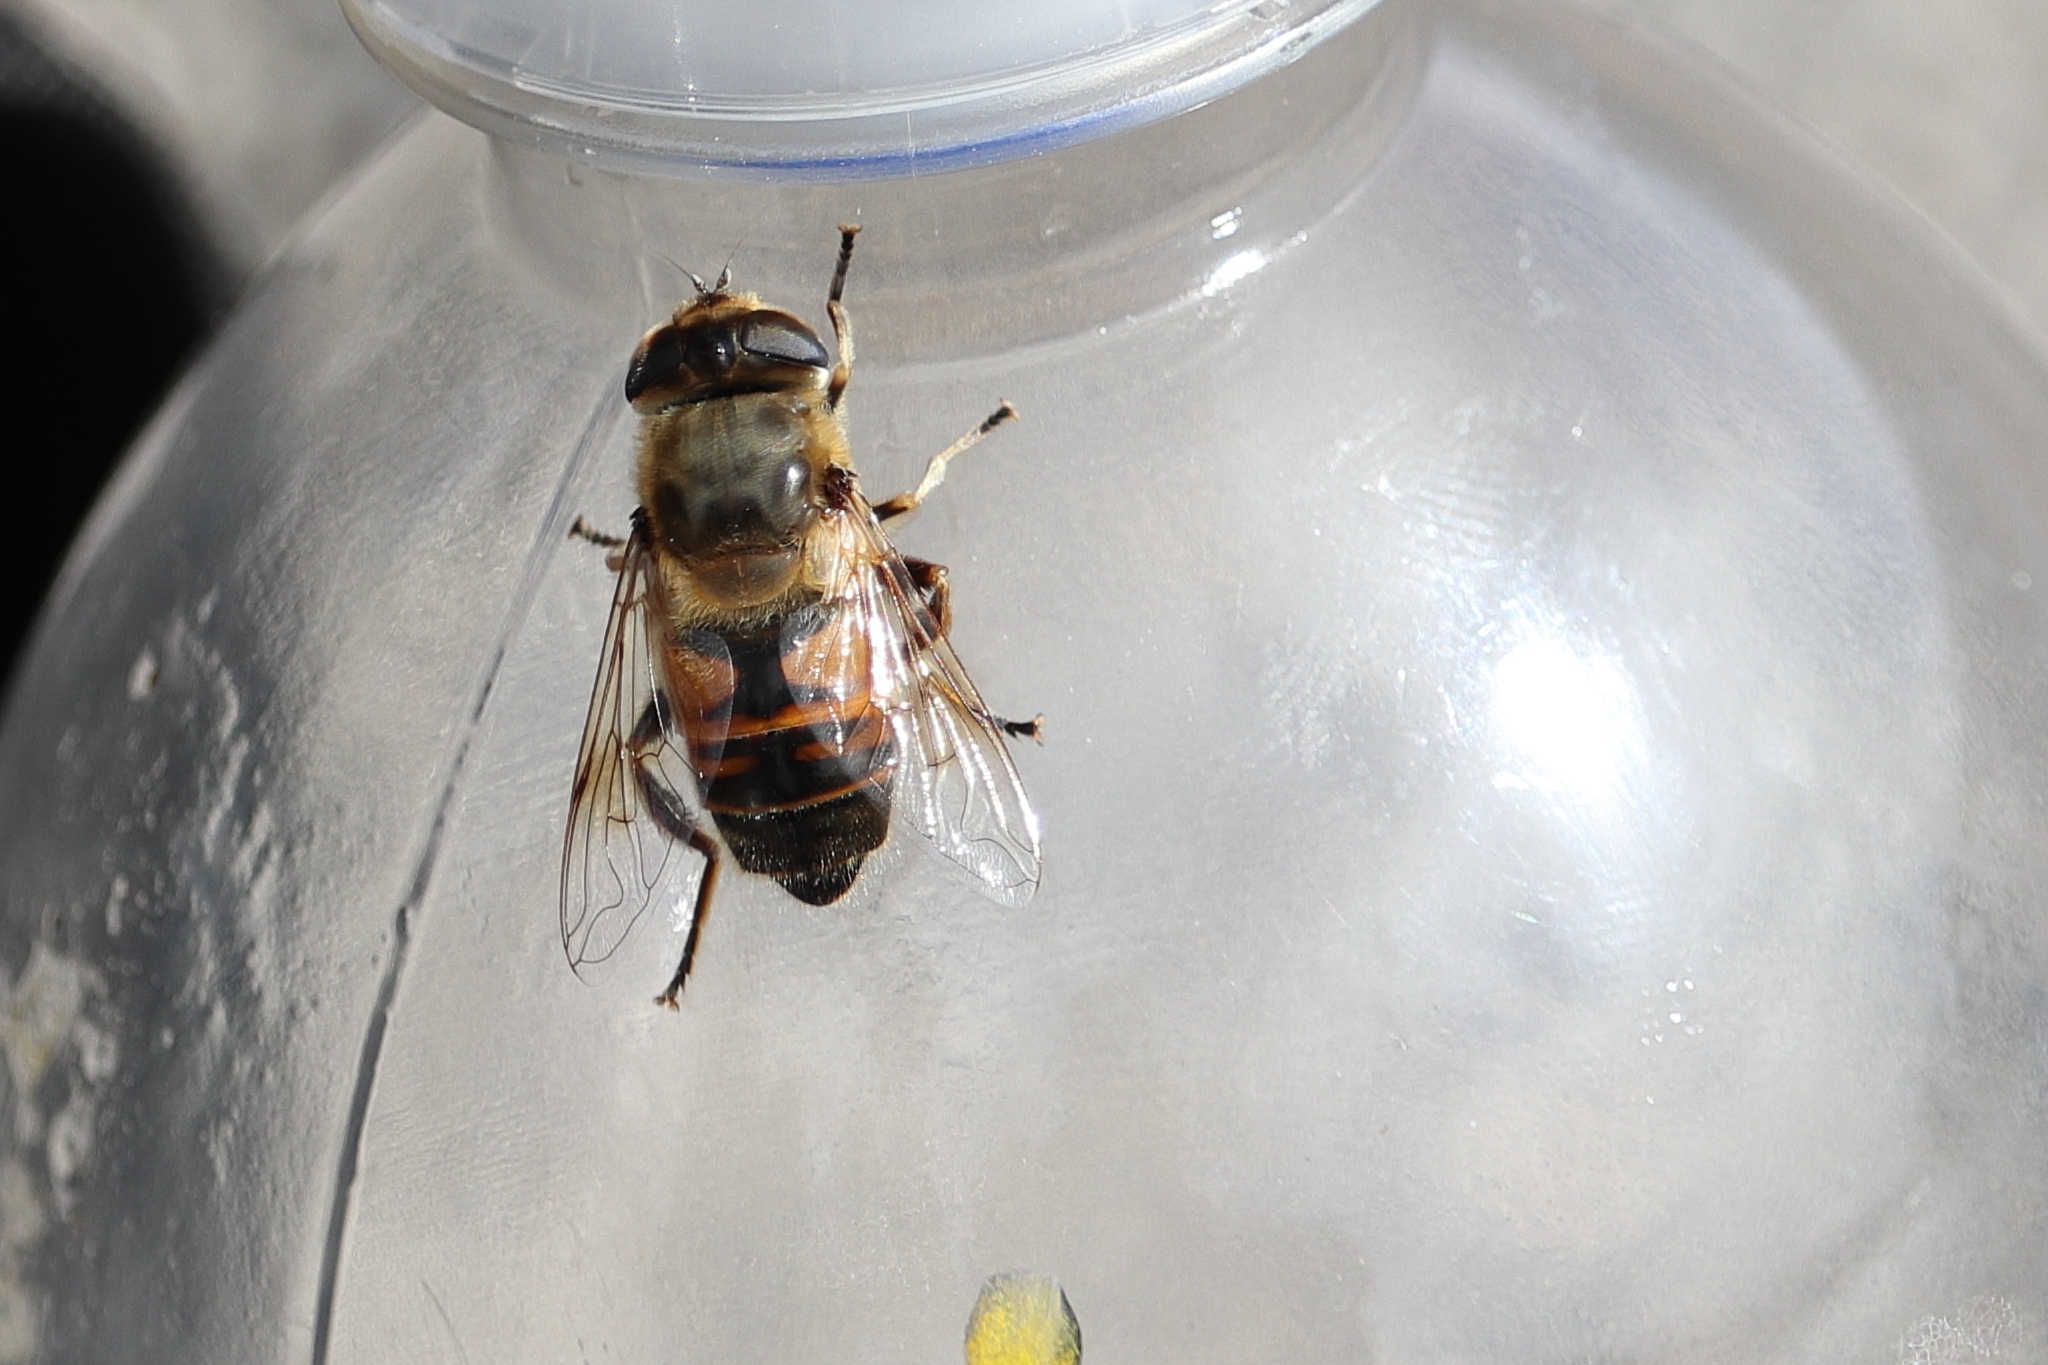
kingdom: Animalia
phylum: Arthropoda
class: Insecta
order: Diptera
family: Syrphidae
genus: Eristalis
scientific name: Eristalis tenax
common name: Drone fly
